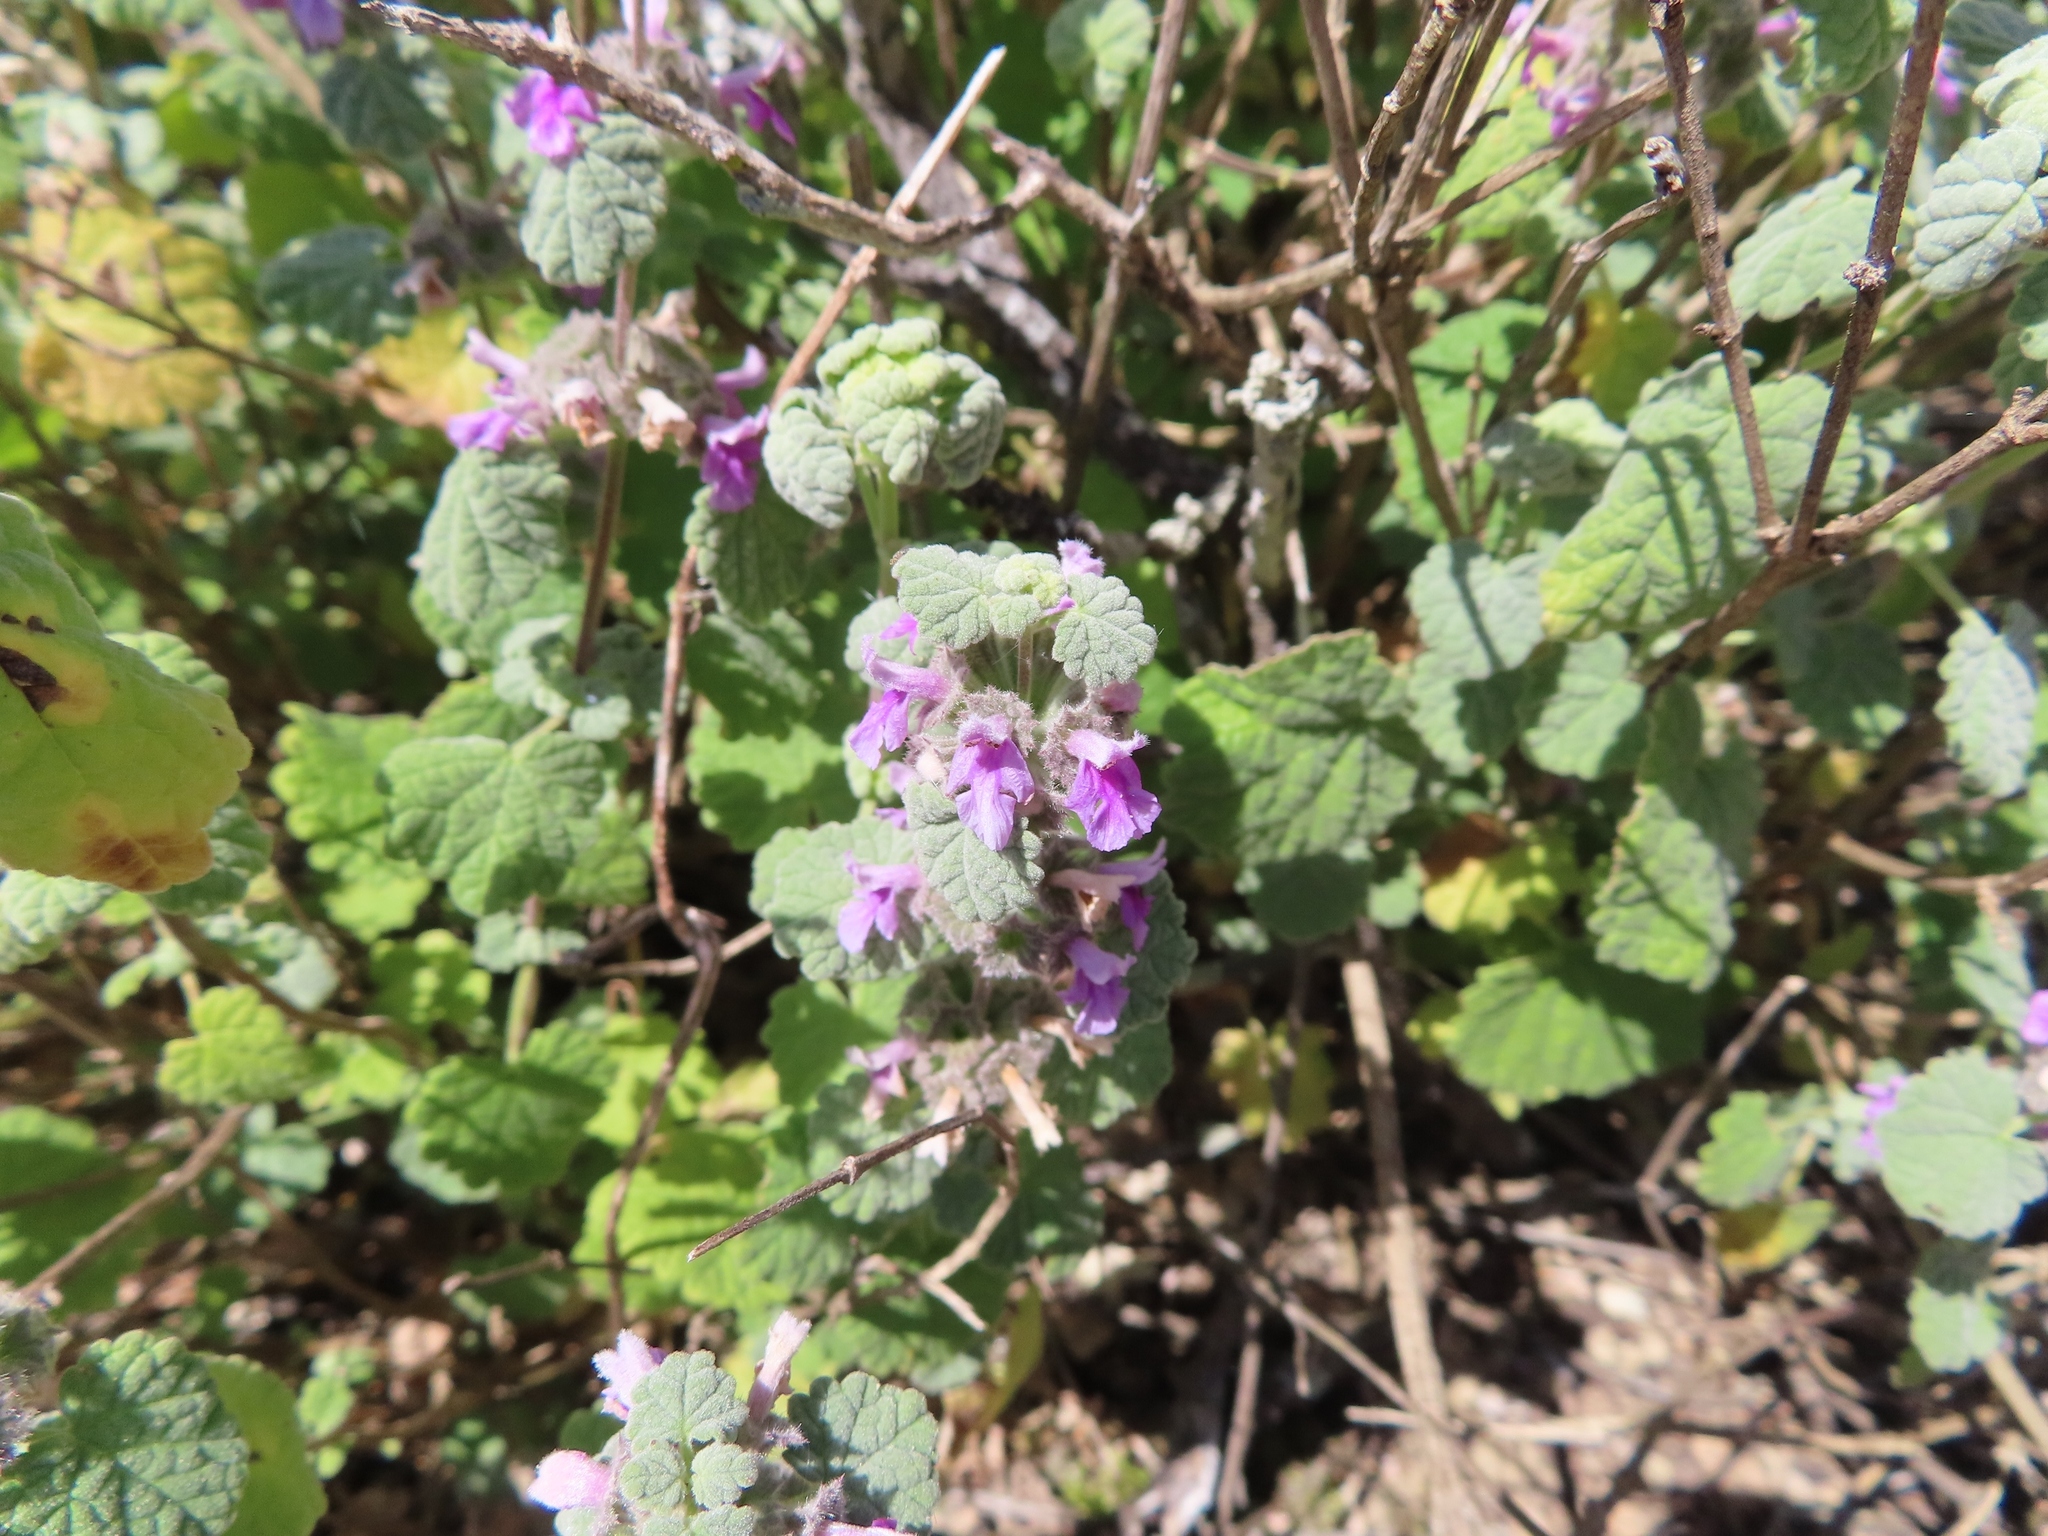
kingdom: Plantae
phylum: Tracheophyta
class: Magnoliopsida
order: Lamiales
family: Lamiaceae
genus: Pseudodictamnus
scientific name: Pseudodictamnus africanus
